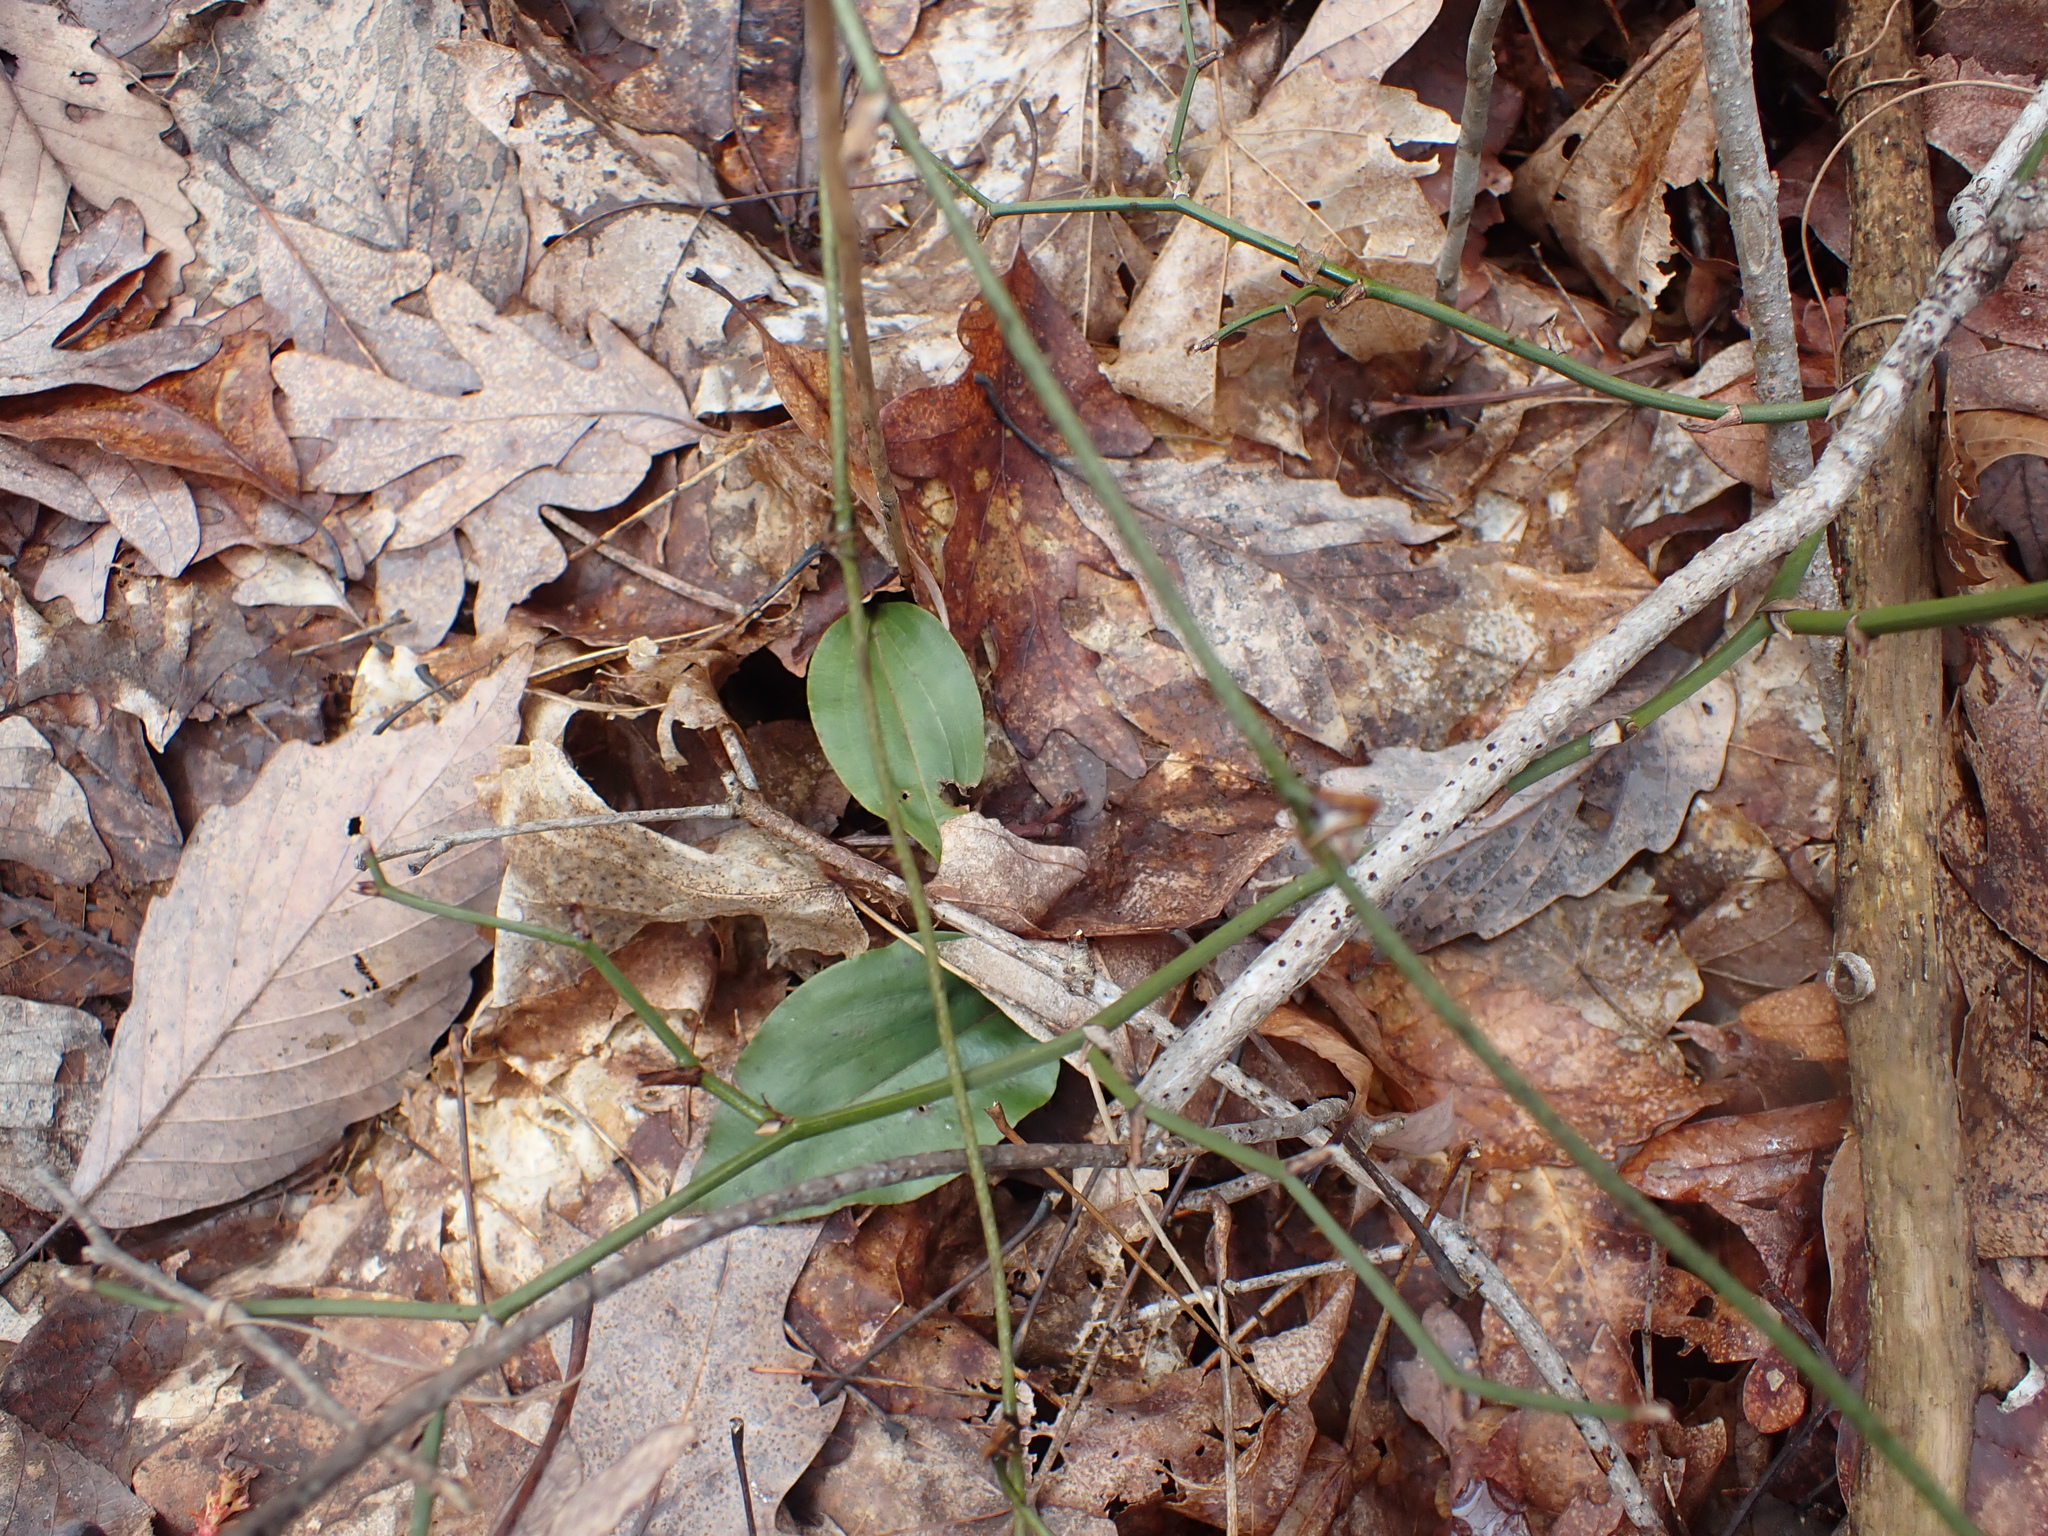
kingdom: Plantae
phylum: Tracheophyta
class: Liliopsida
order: Asparagales
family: Orchidaceae
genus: Tipularia
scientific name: Tipularia discolor
